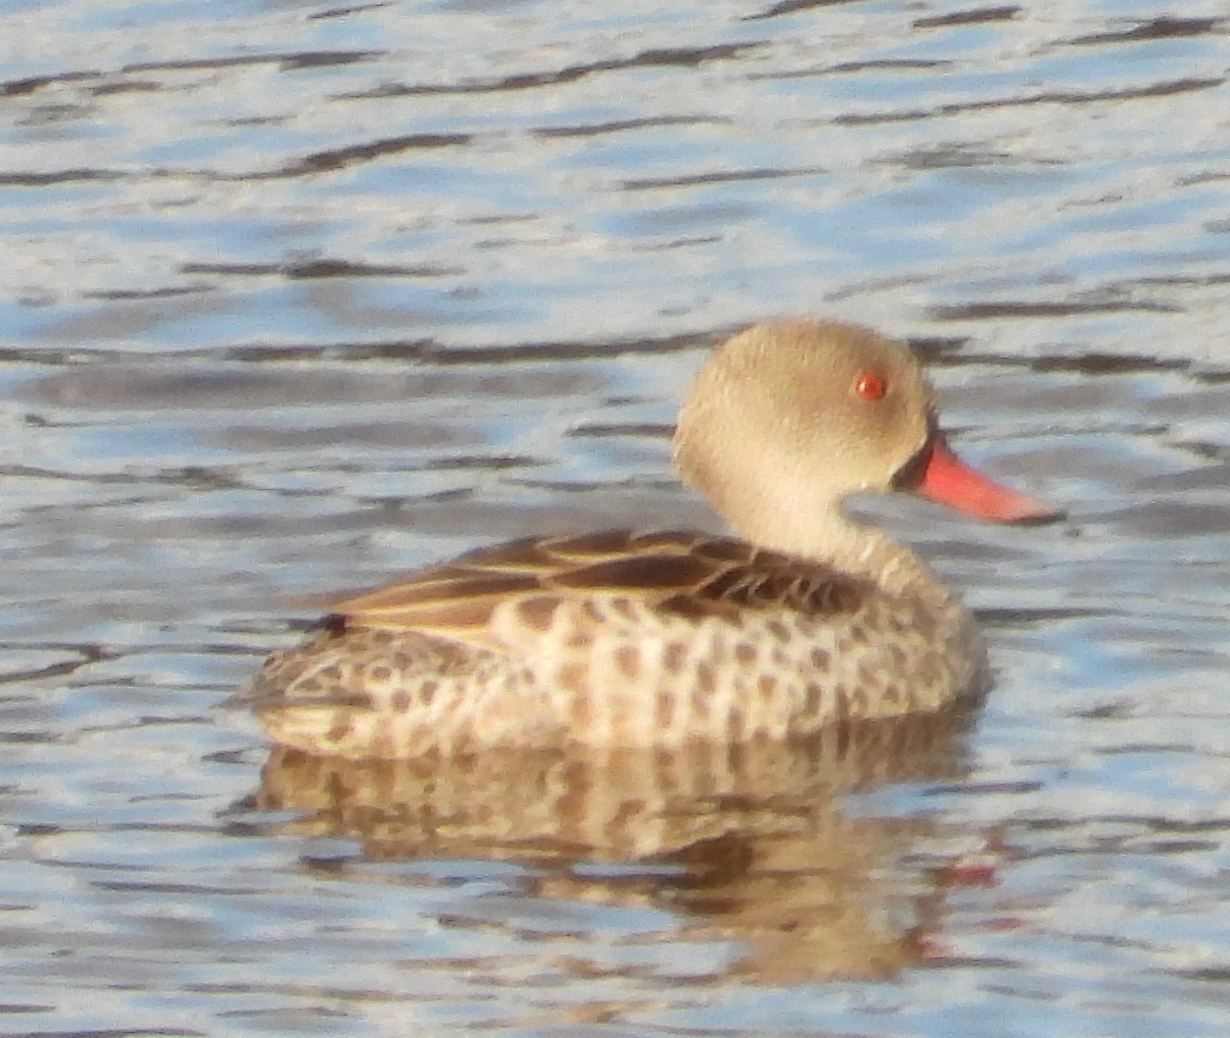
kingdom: Animalia
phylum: Chordata
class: Aves
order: Anseriformes
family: Anatidae
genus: Anas
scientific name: Anas capensis
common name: Cape teal
